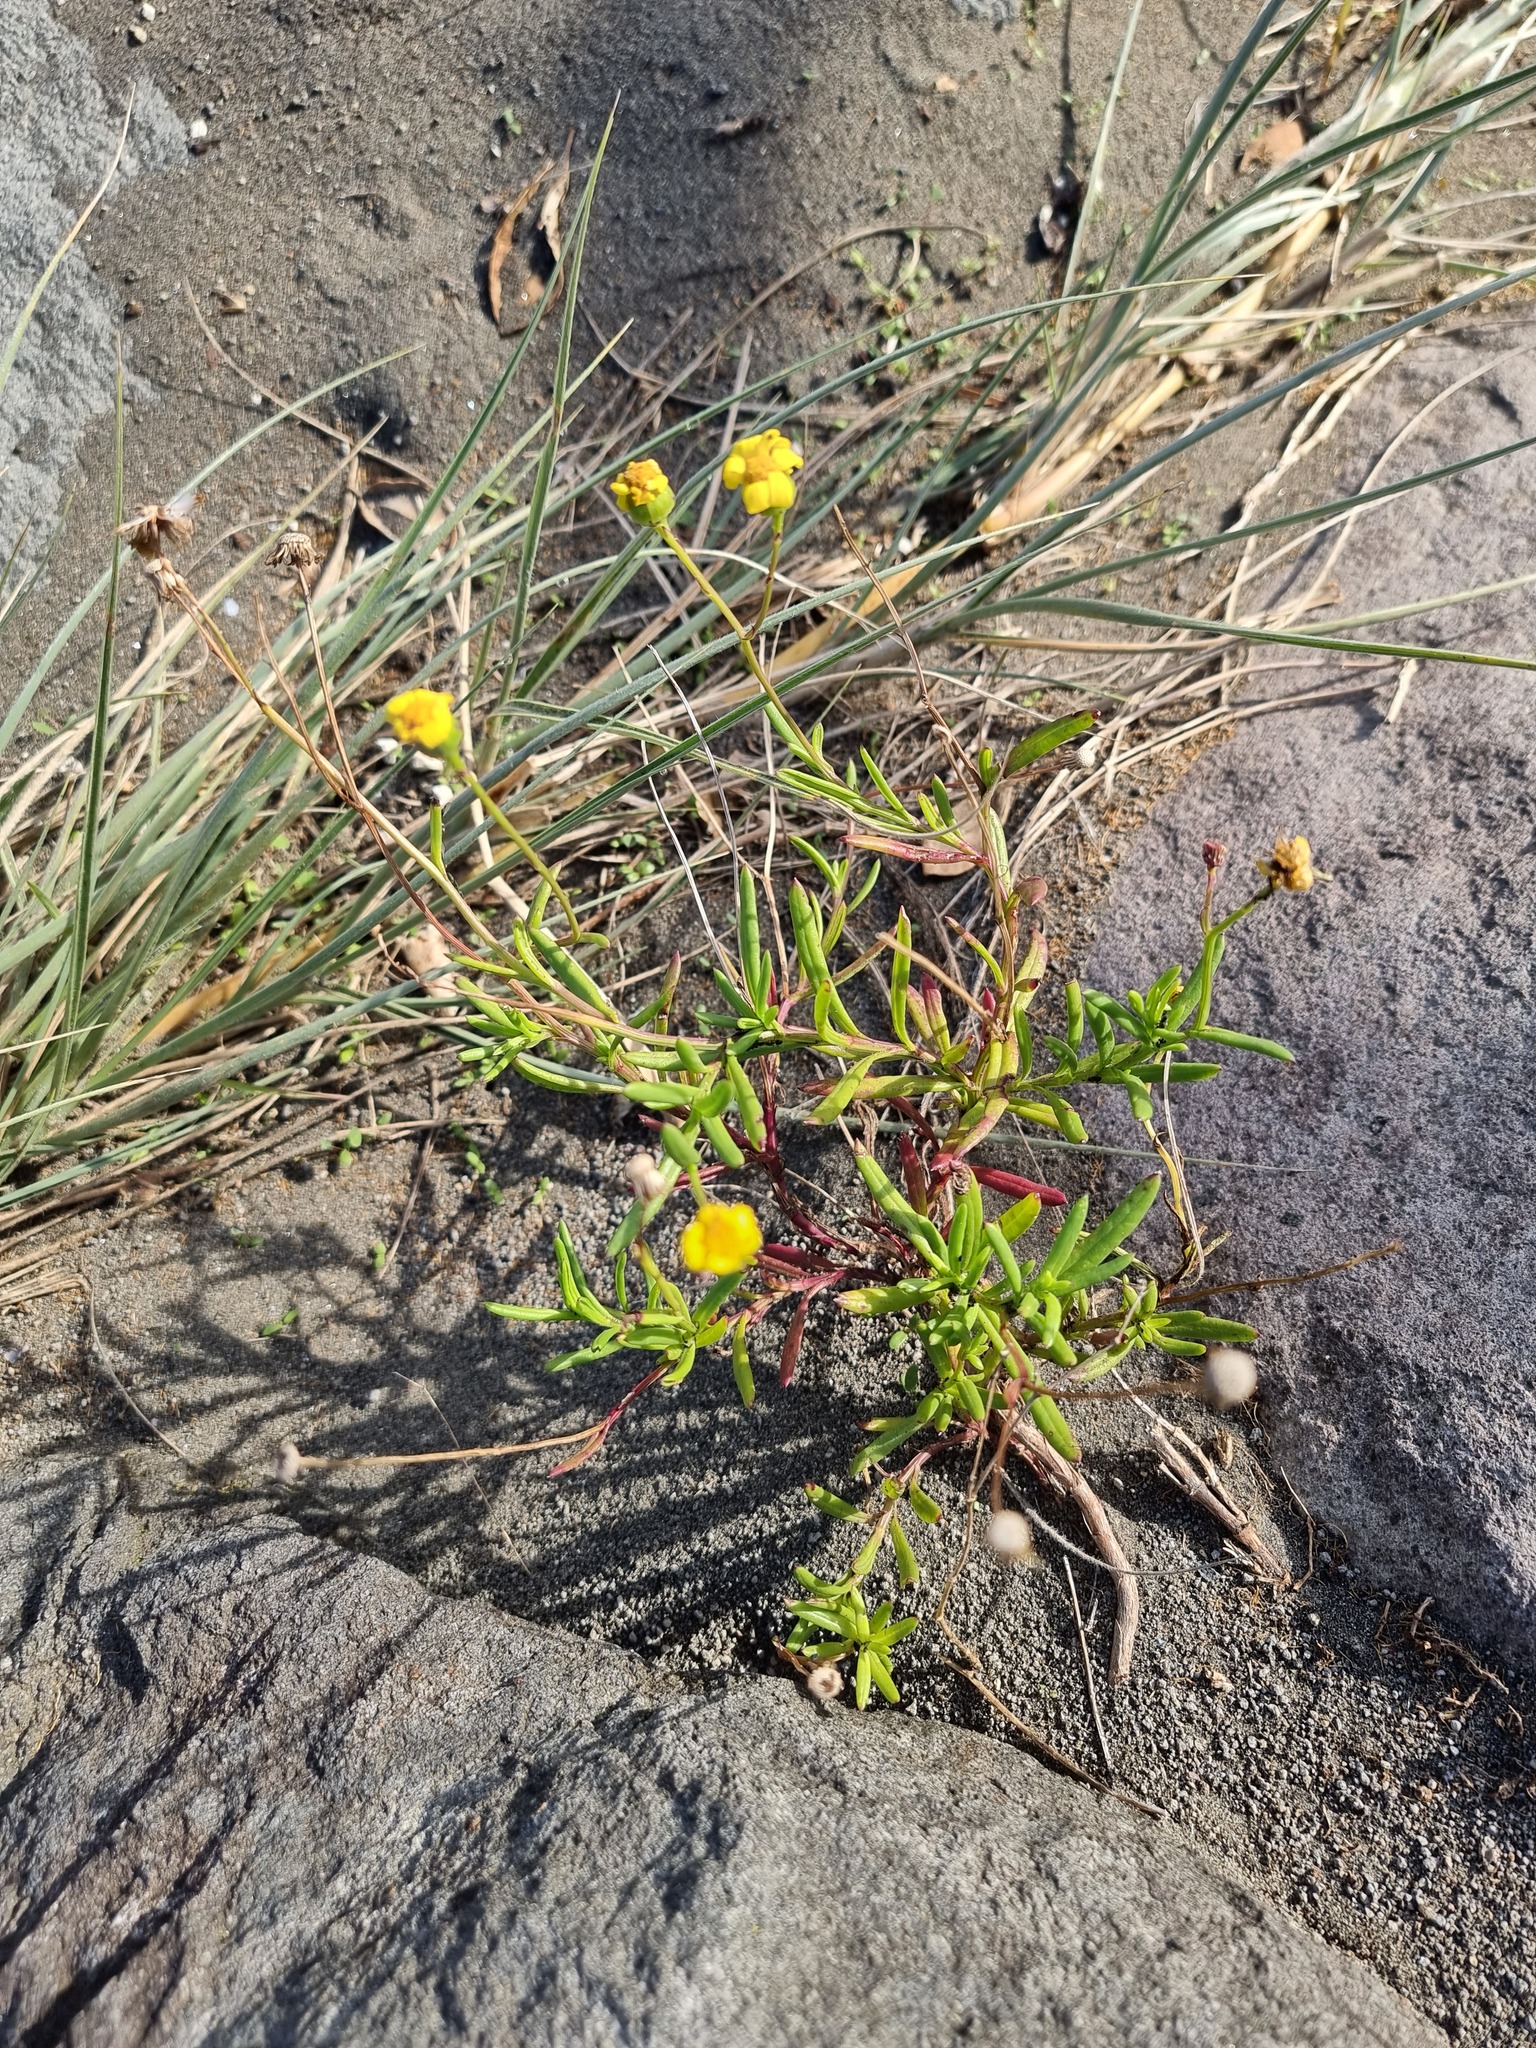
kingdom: Plantae
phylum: Tracheophyta
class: Magnoliopsida
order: Asterales
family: Asteraceae
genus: Senecio
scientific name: Senecio skirrhodon
